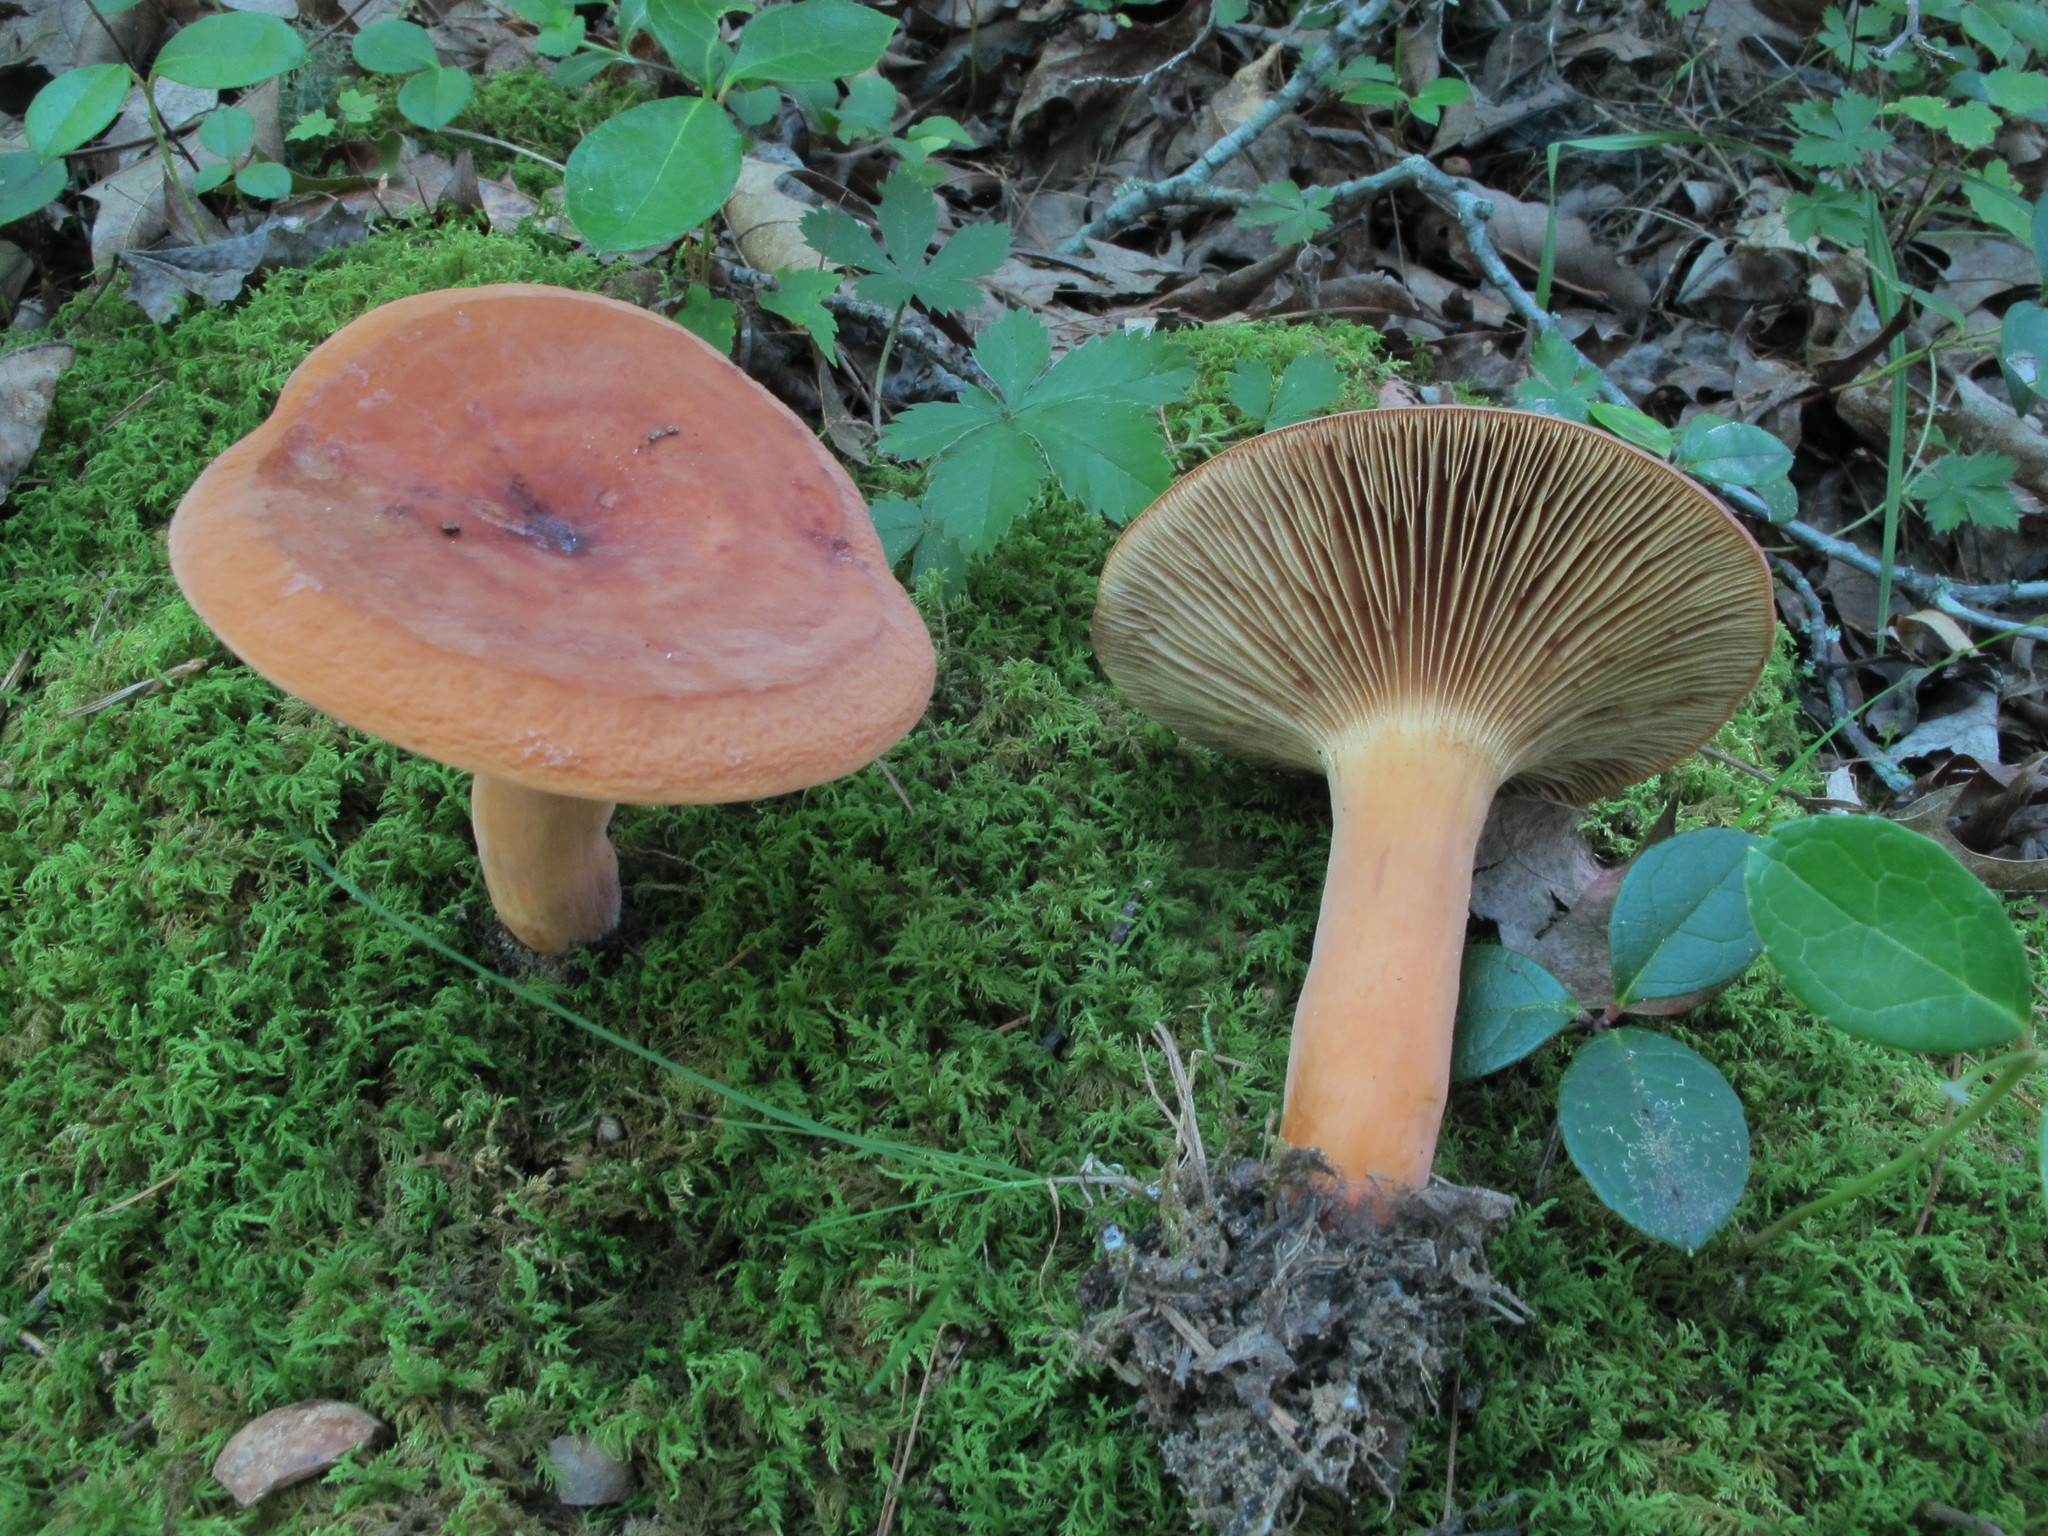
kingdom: Fungi
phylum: Basidiomycota
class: Agaricomycetes
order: Russulales
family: Russulaceae
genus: Lactifluus
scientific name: Lactifluus volemus
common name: Fishy milkcap
